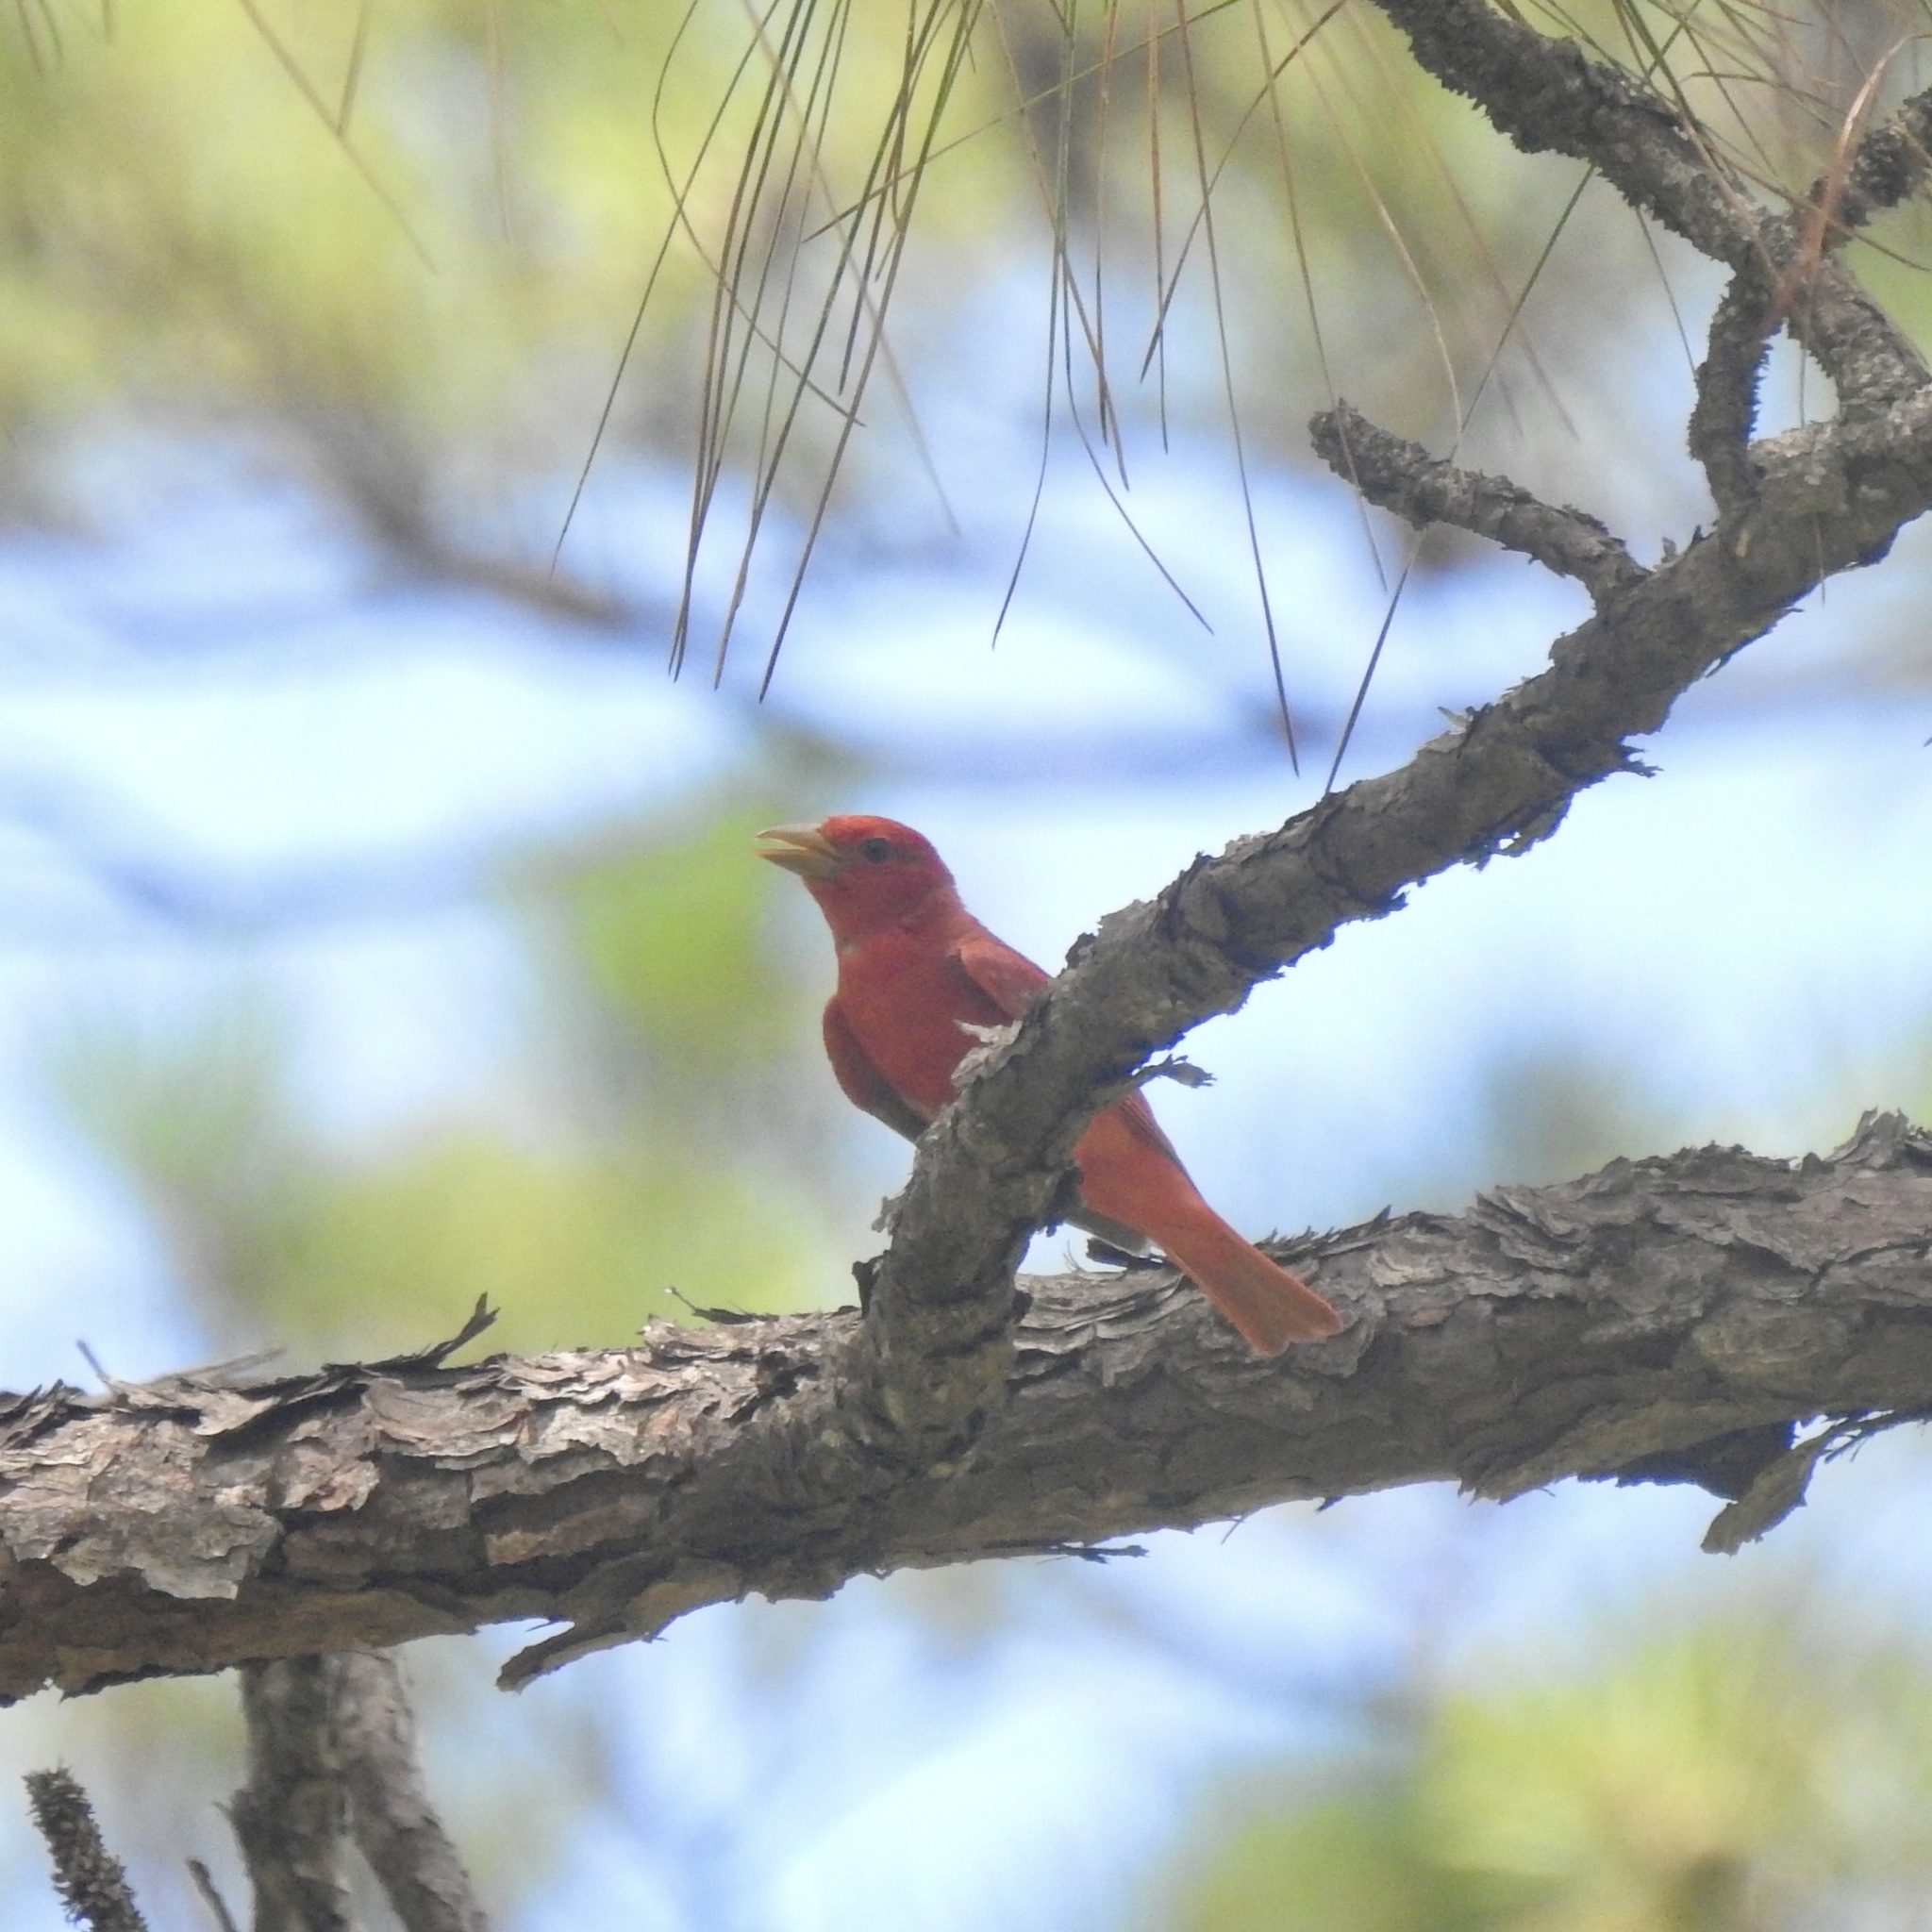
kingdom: Animalia
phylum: Chordata
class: Aves
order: Passeriformes
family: Cardinalidae
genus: Piranga
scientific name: Piranga rubra
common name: Summer tanager
